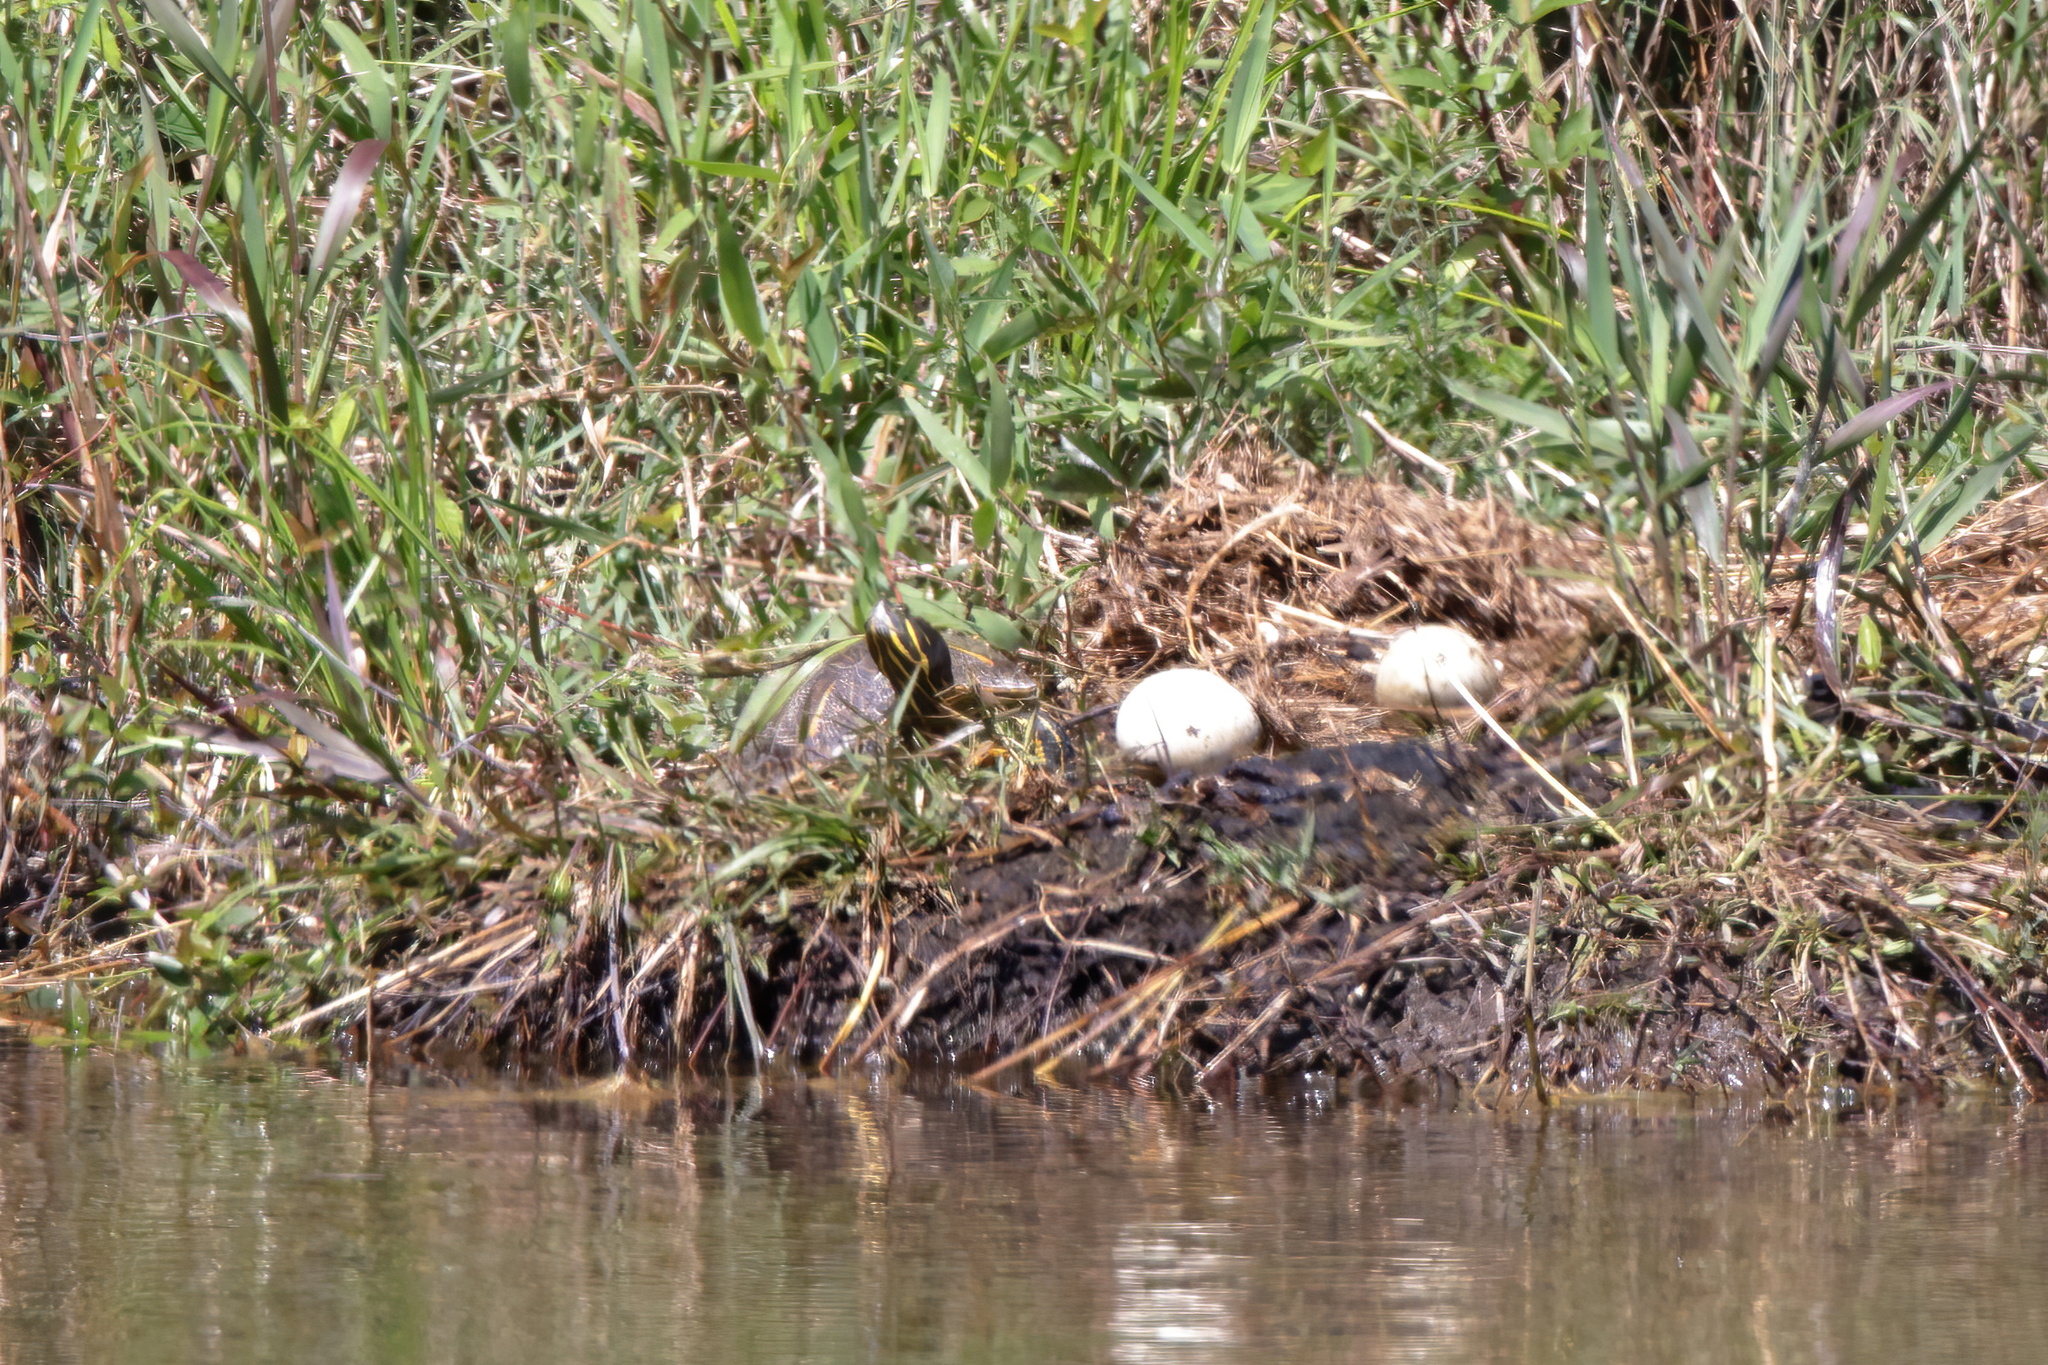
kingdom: Animalia
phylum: Chordata
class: Testudines
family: Emydidae
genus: Trachemys
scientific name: Trachemys scripta
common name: Slider
